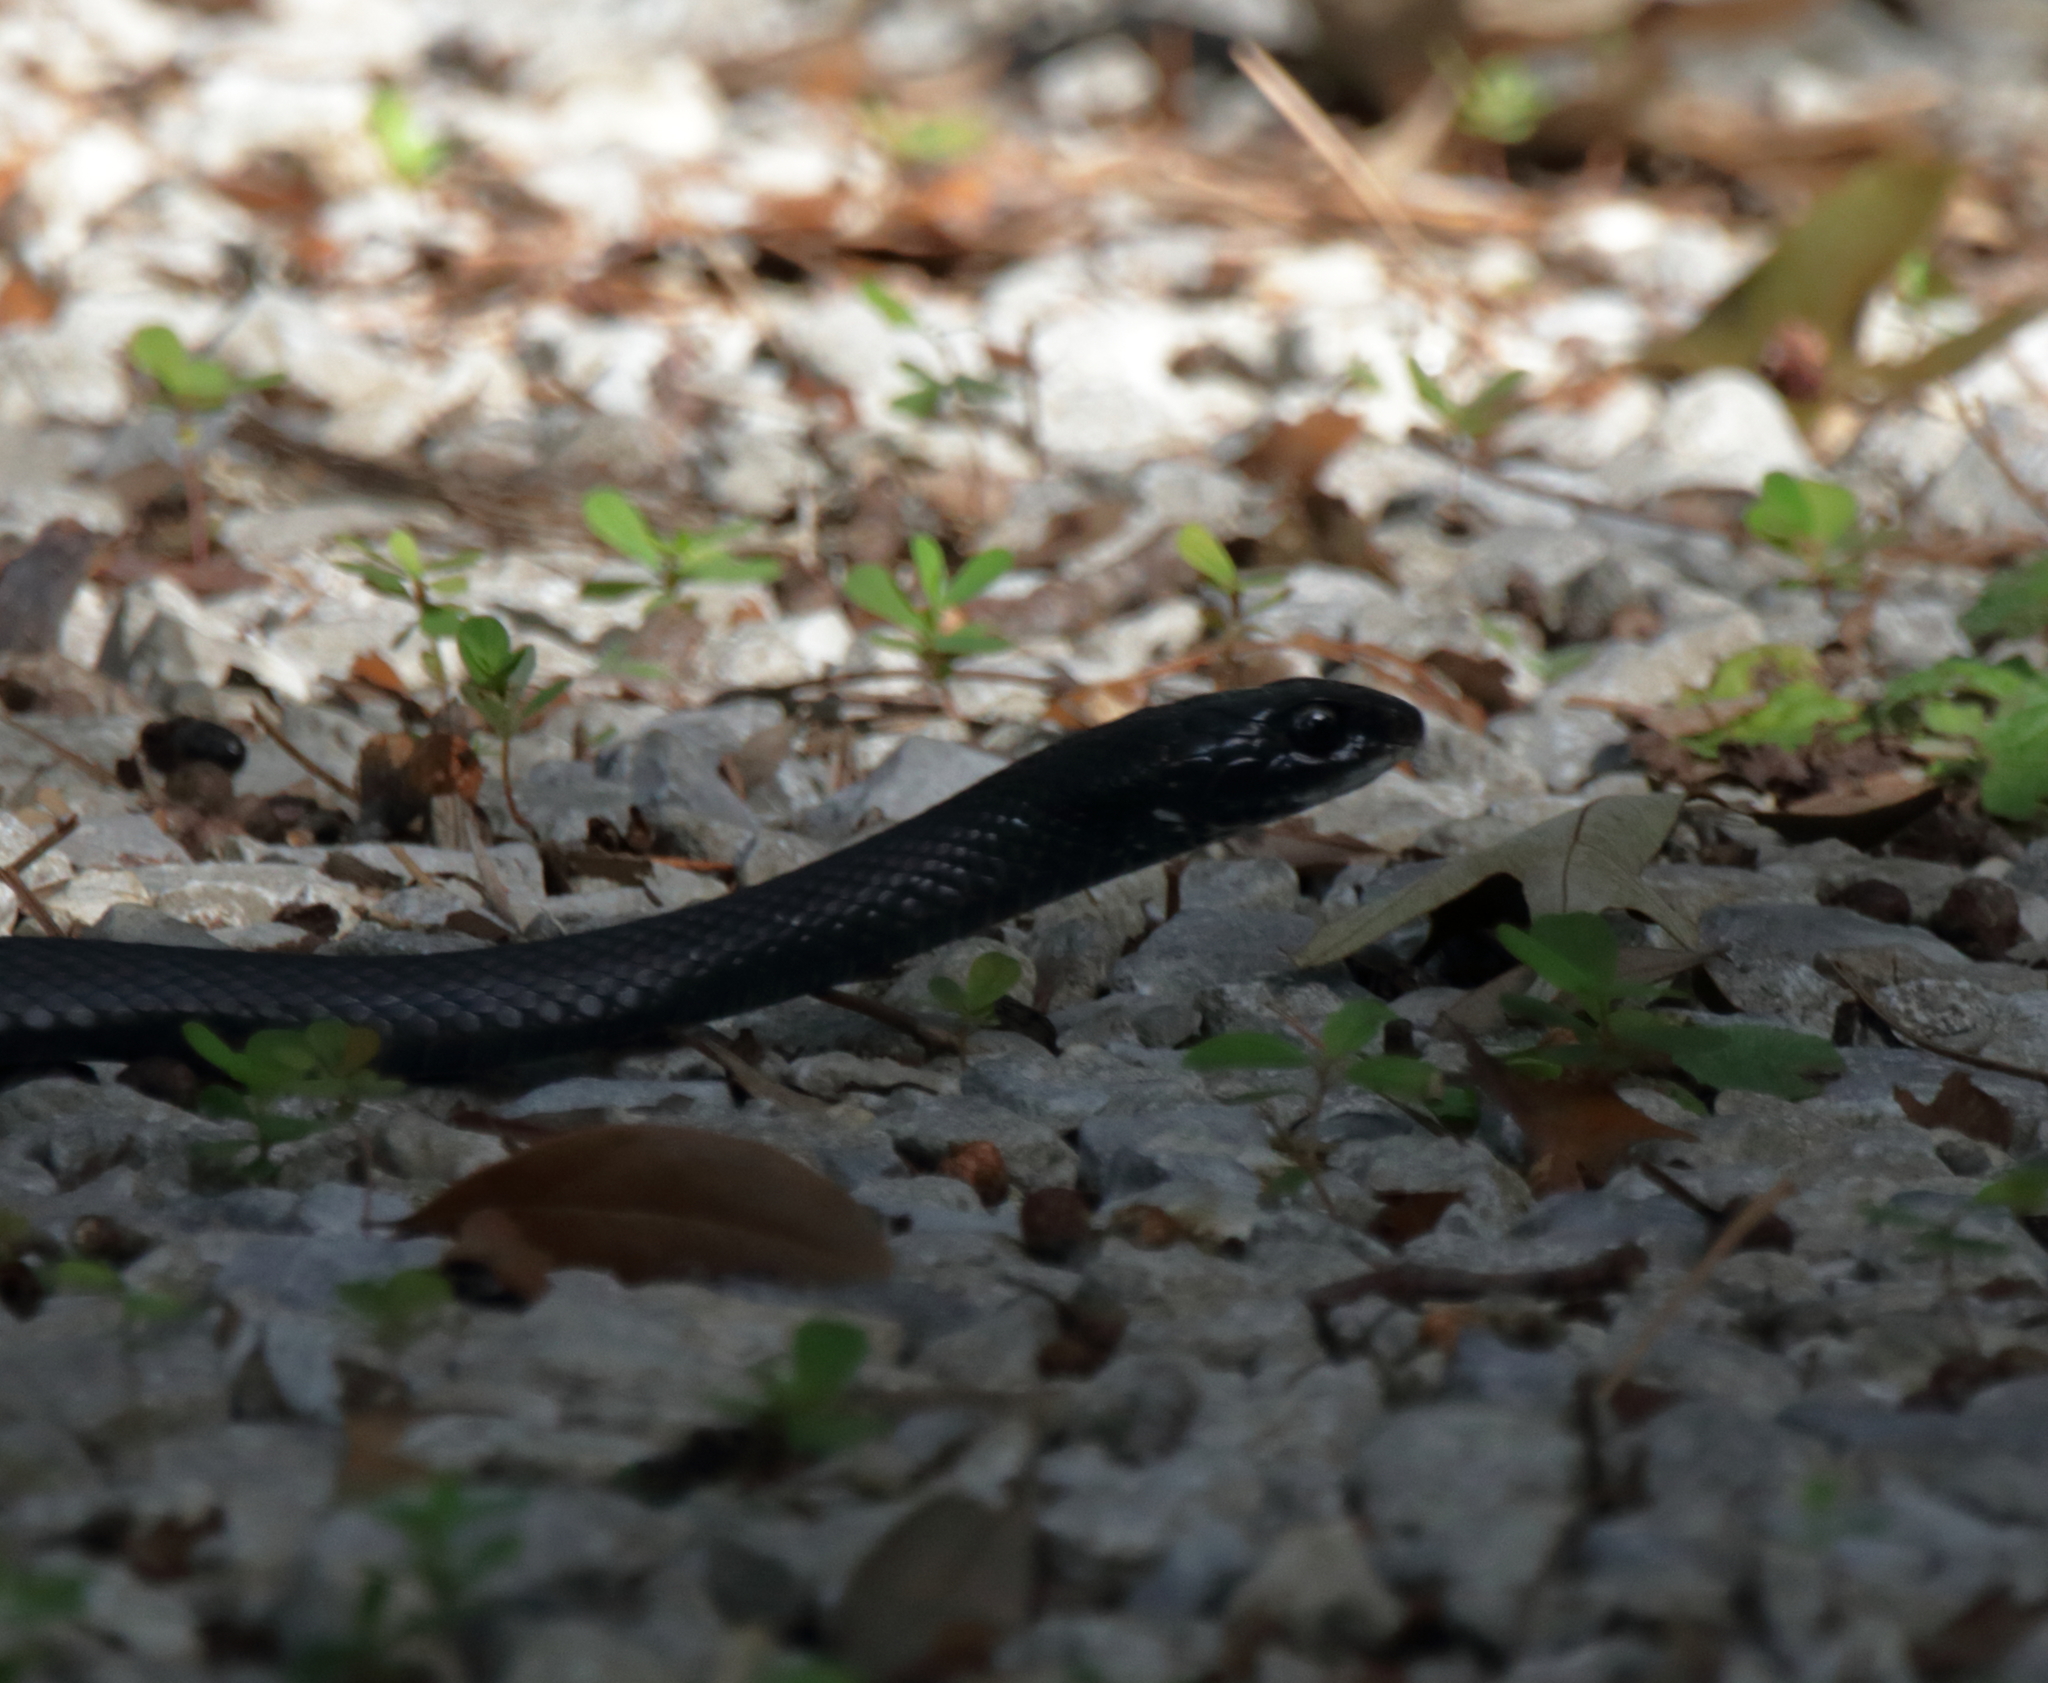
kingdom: Animalia
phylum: Chordata
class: Squamata
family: Colubridae
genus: Coluber
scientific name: Coluber constrictor
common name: Eastern racer
